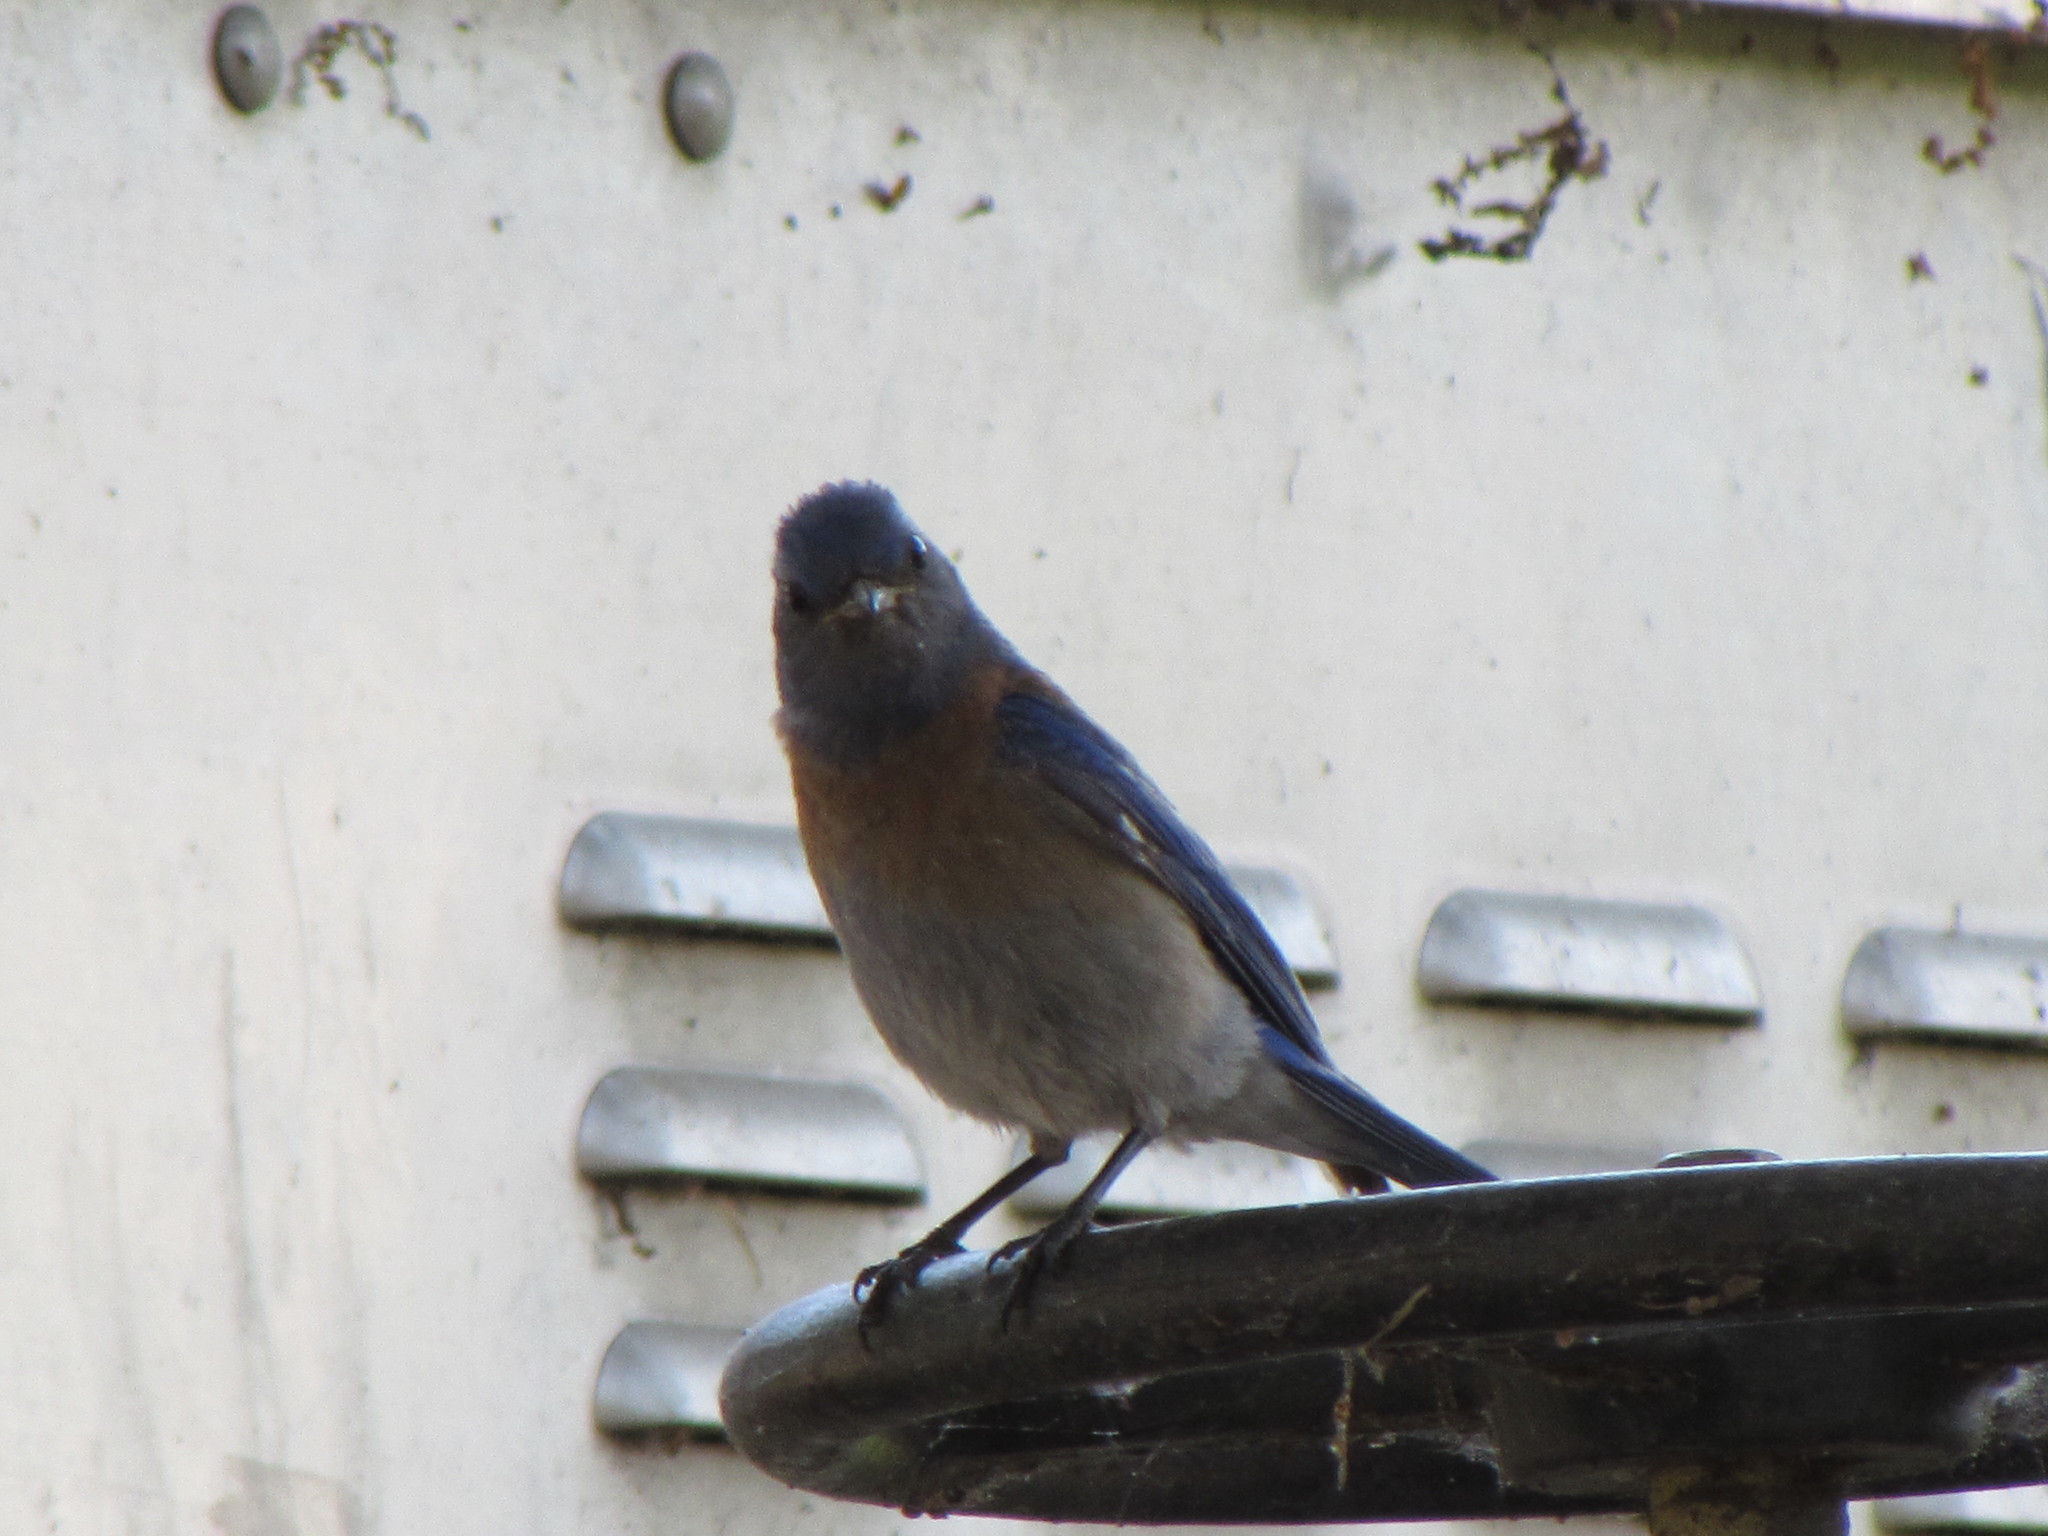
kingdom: Animalia
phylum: Chordata
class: Aves
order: Passeriformes
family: Turdidae
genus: Sialia
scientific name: Sialia mexicana
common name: Western bluebird
